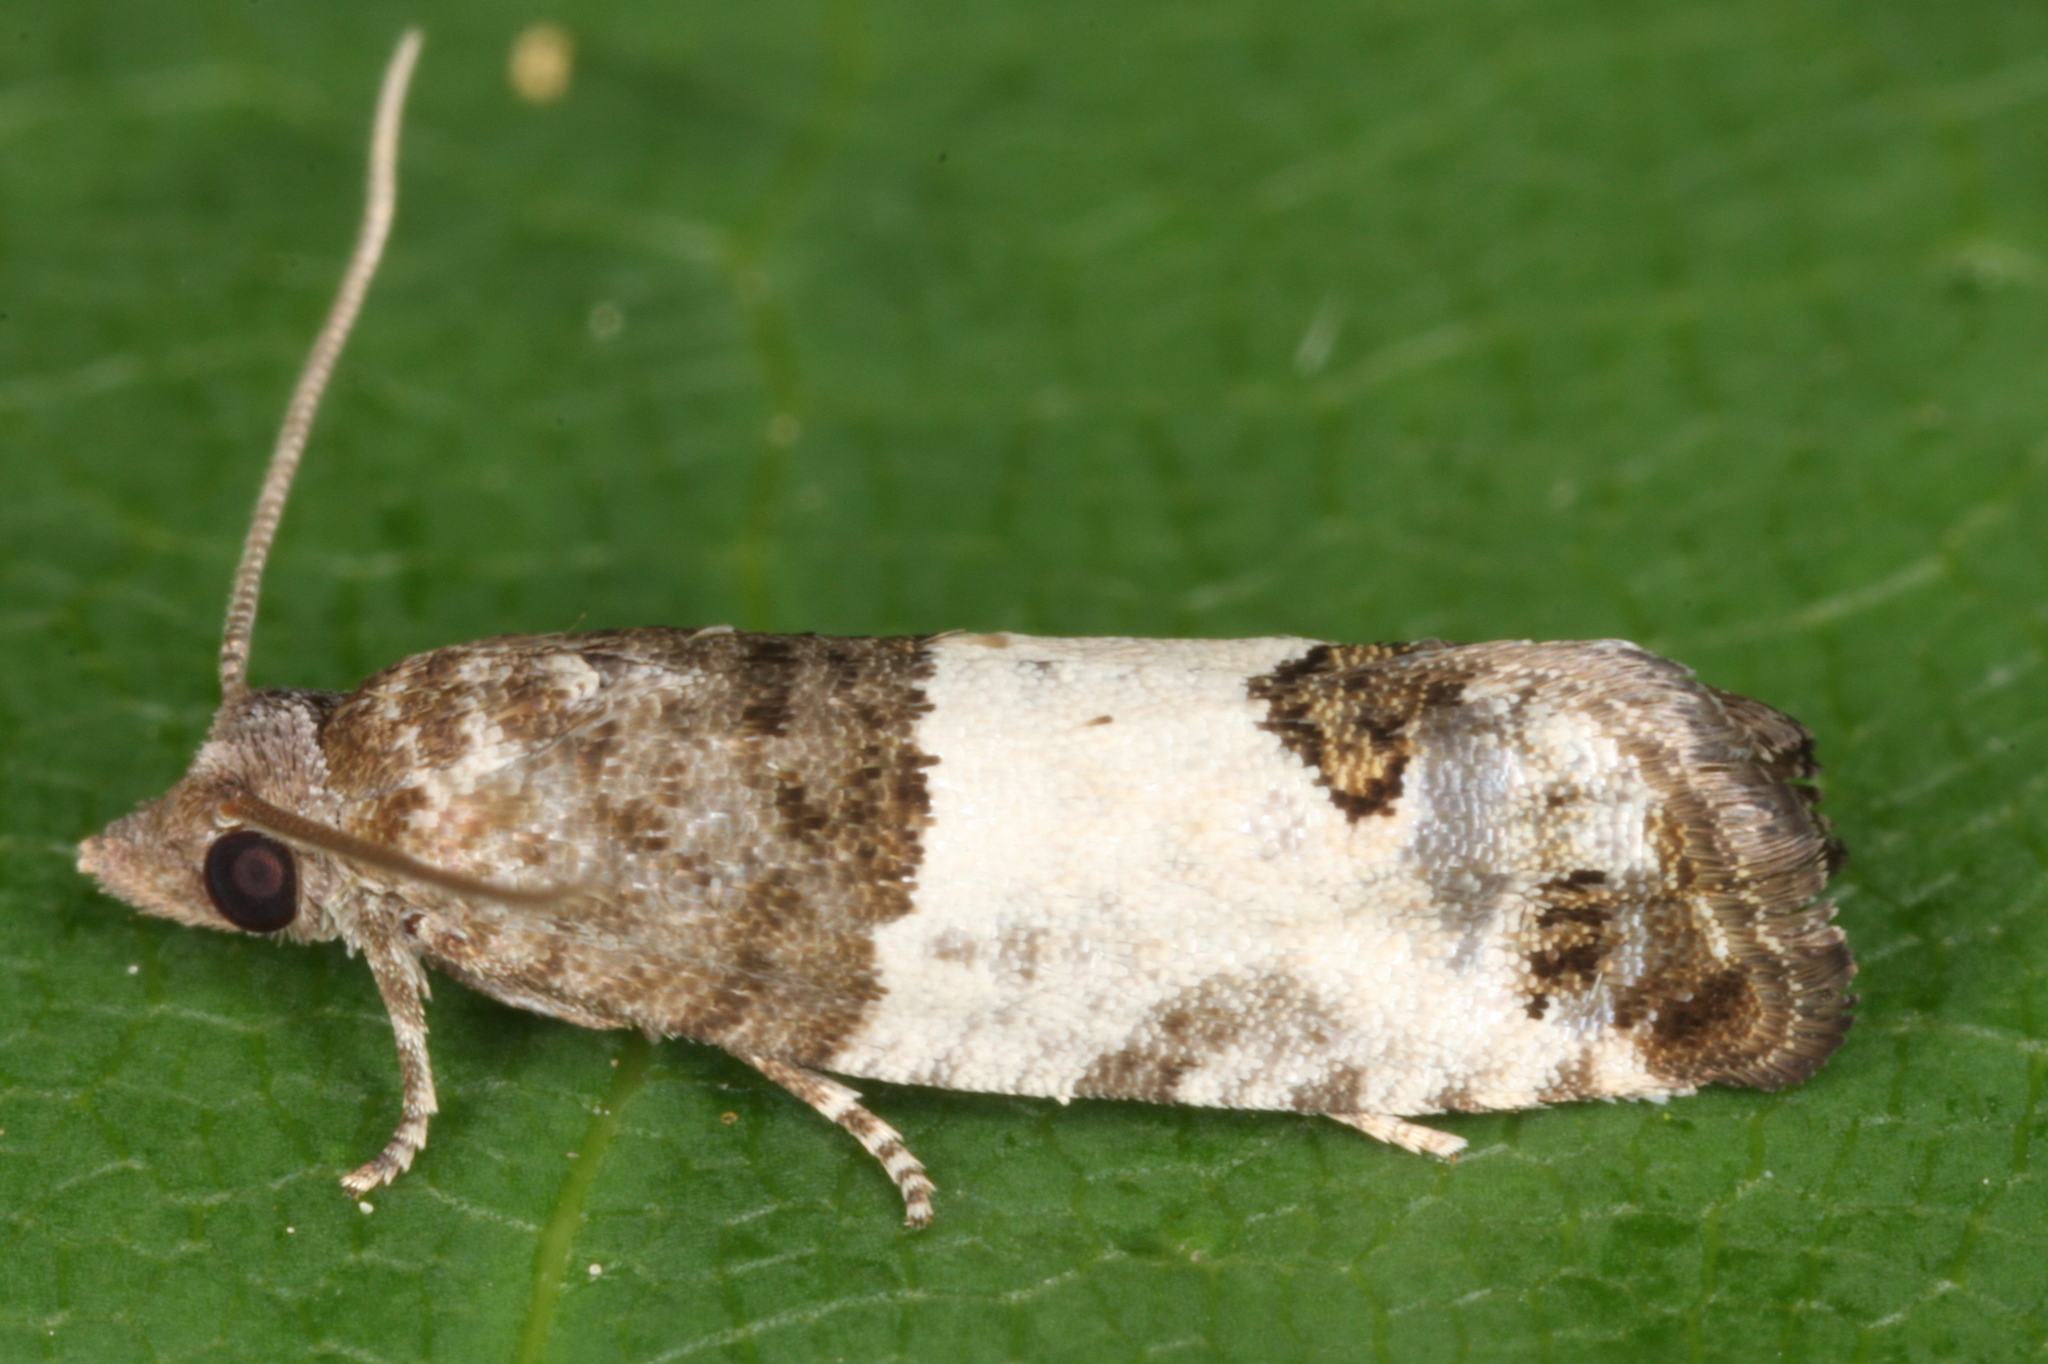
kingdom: Animalia
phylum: Arthropoda
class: Insecta
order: Lepidoptera
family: Tortricidae
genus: Spilonota
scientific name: Spilonota ocellana
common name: Bud moth
